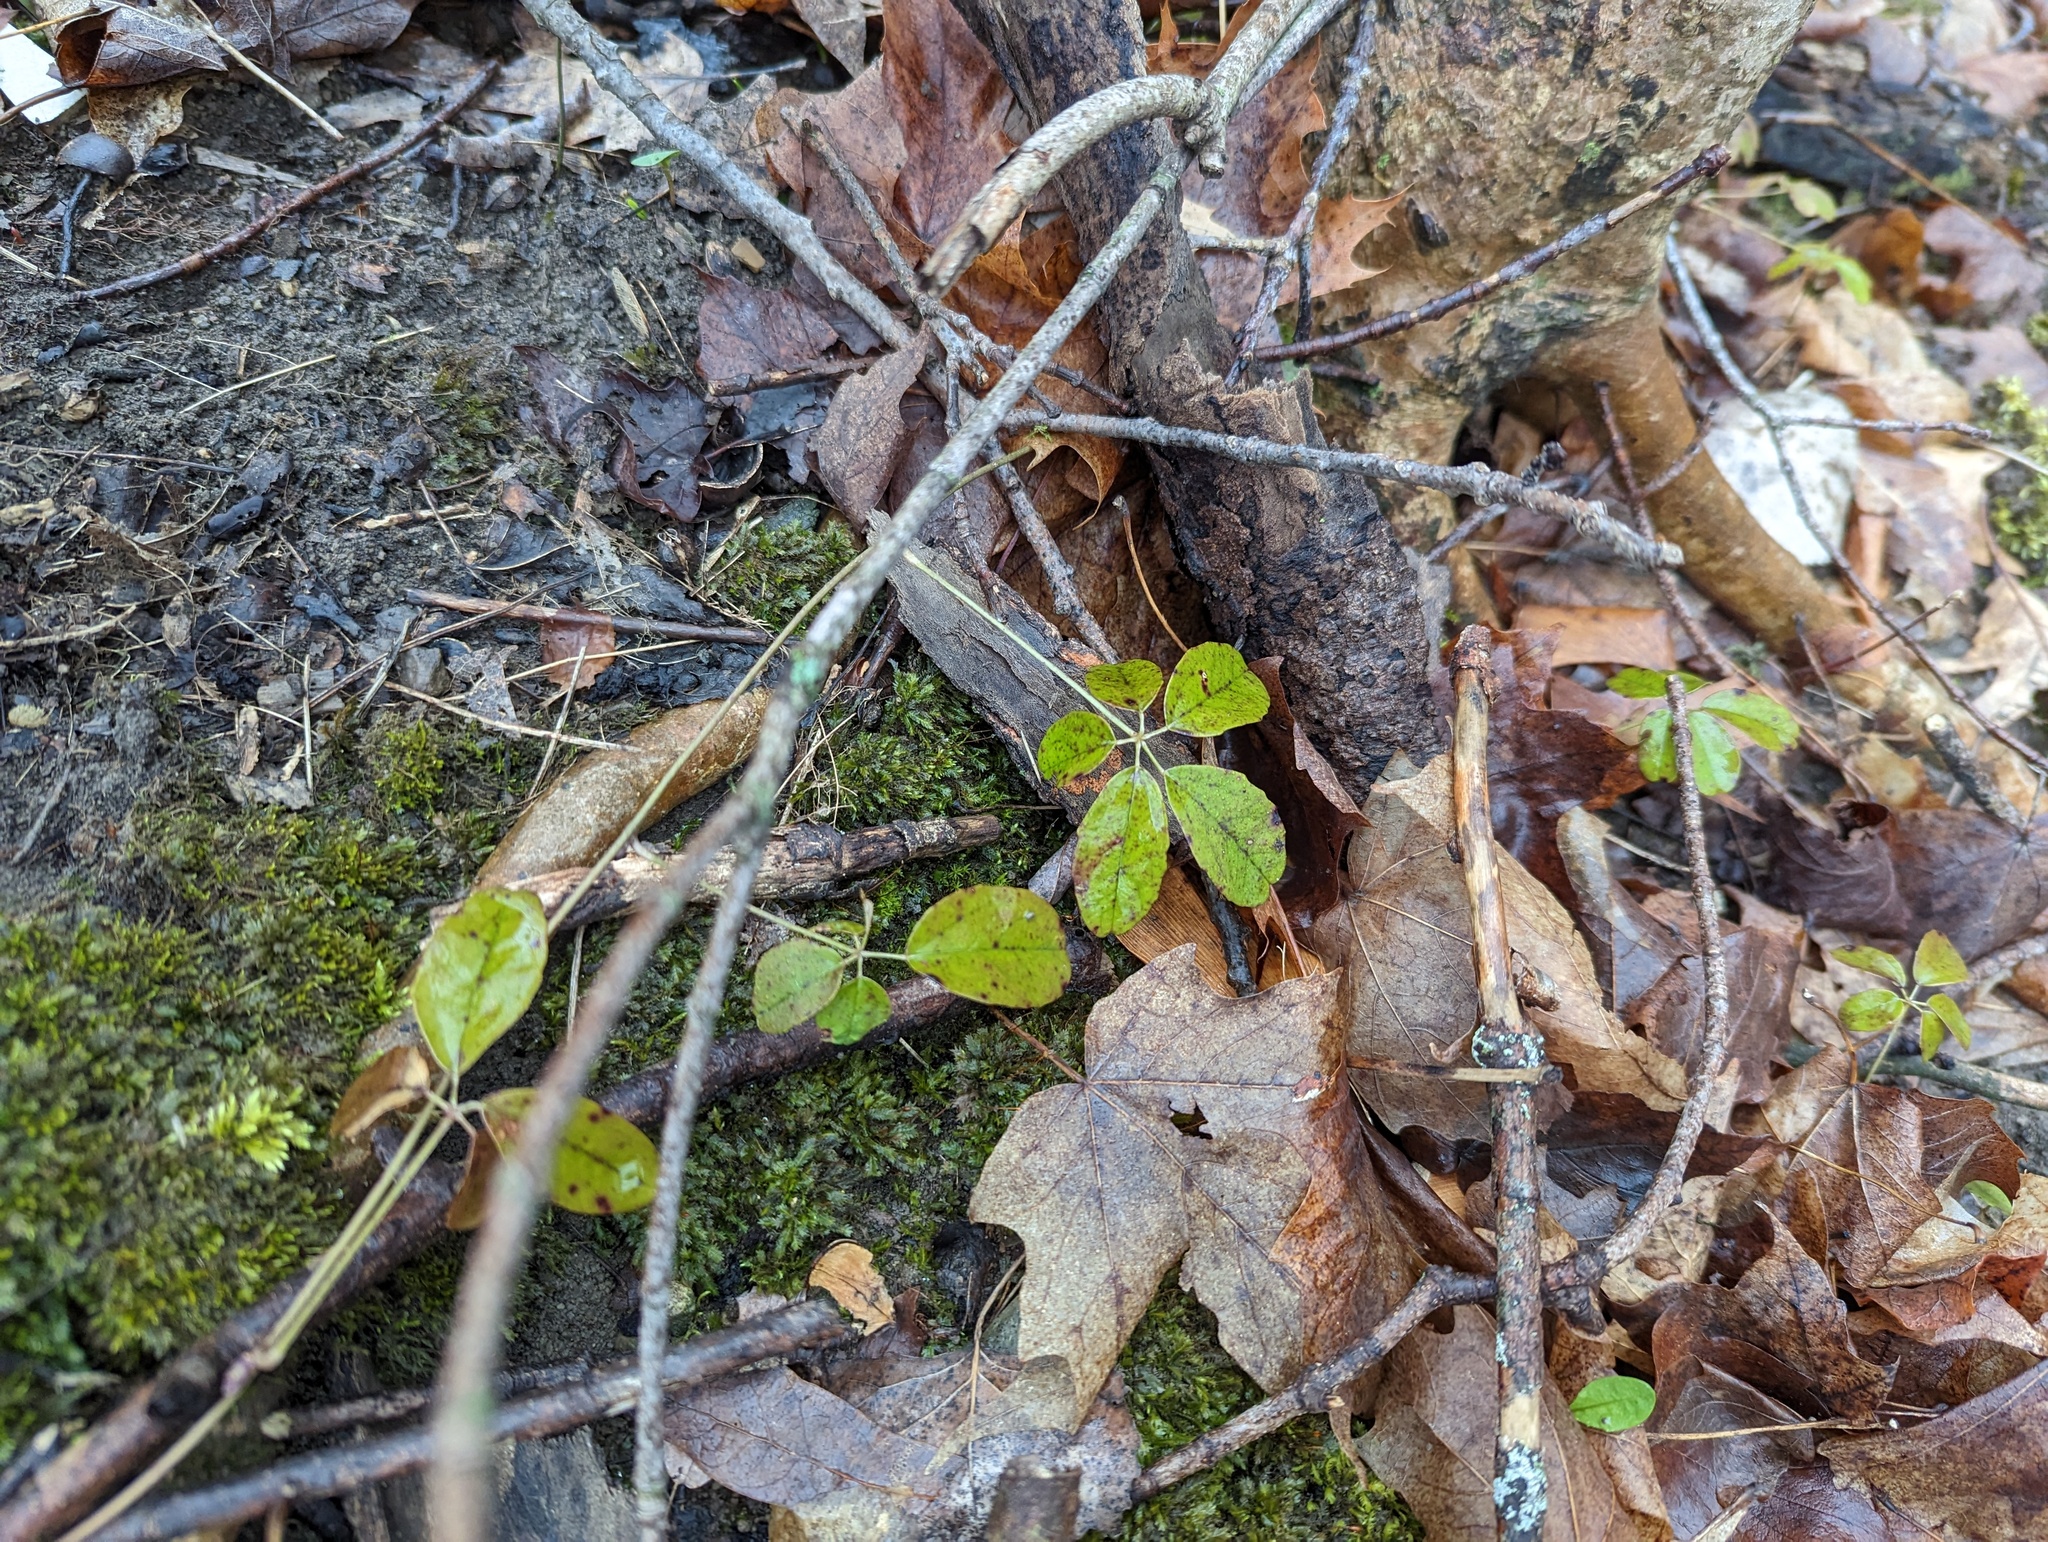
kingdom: Plantae
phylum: Tracheophyta
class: Magnoliopsida
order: Ranunculales
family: Lardizabalaceae
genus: Akebia
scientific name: Akebia quinata
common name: Five-leaf akebia
